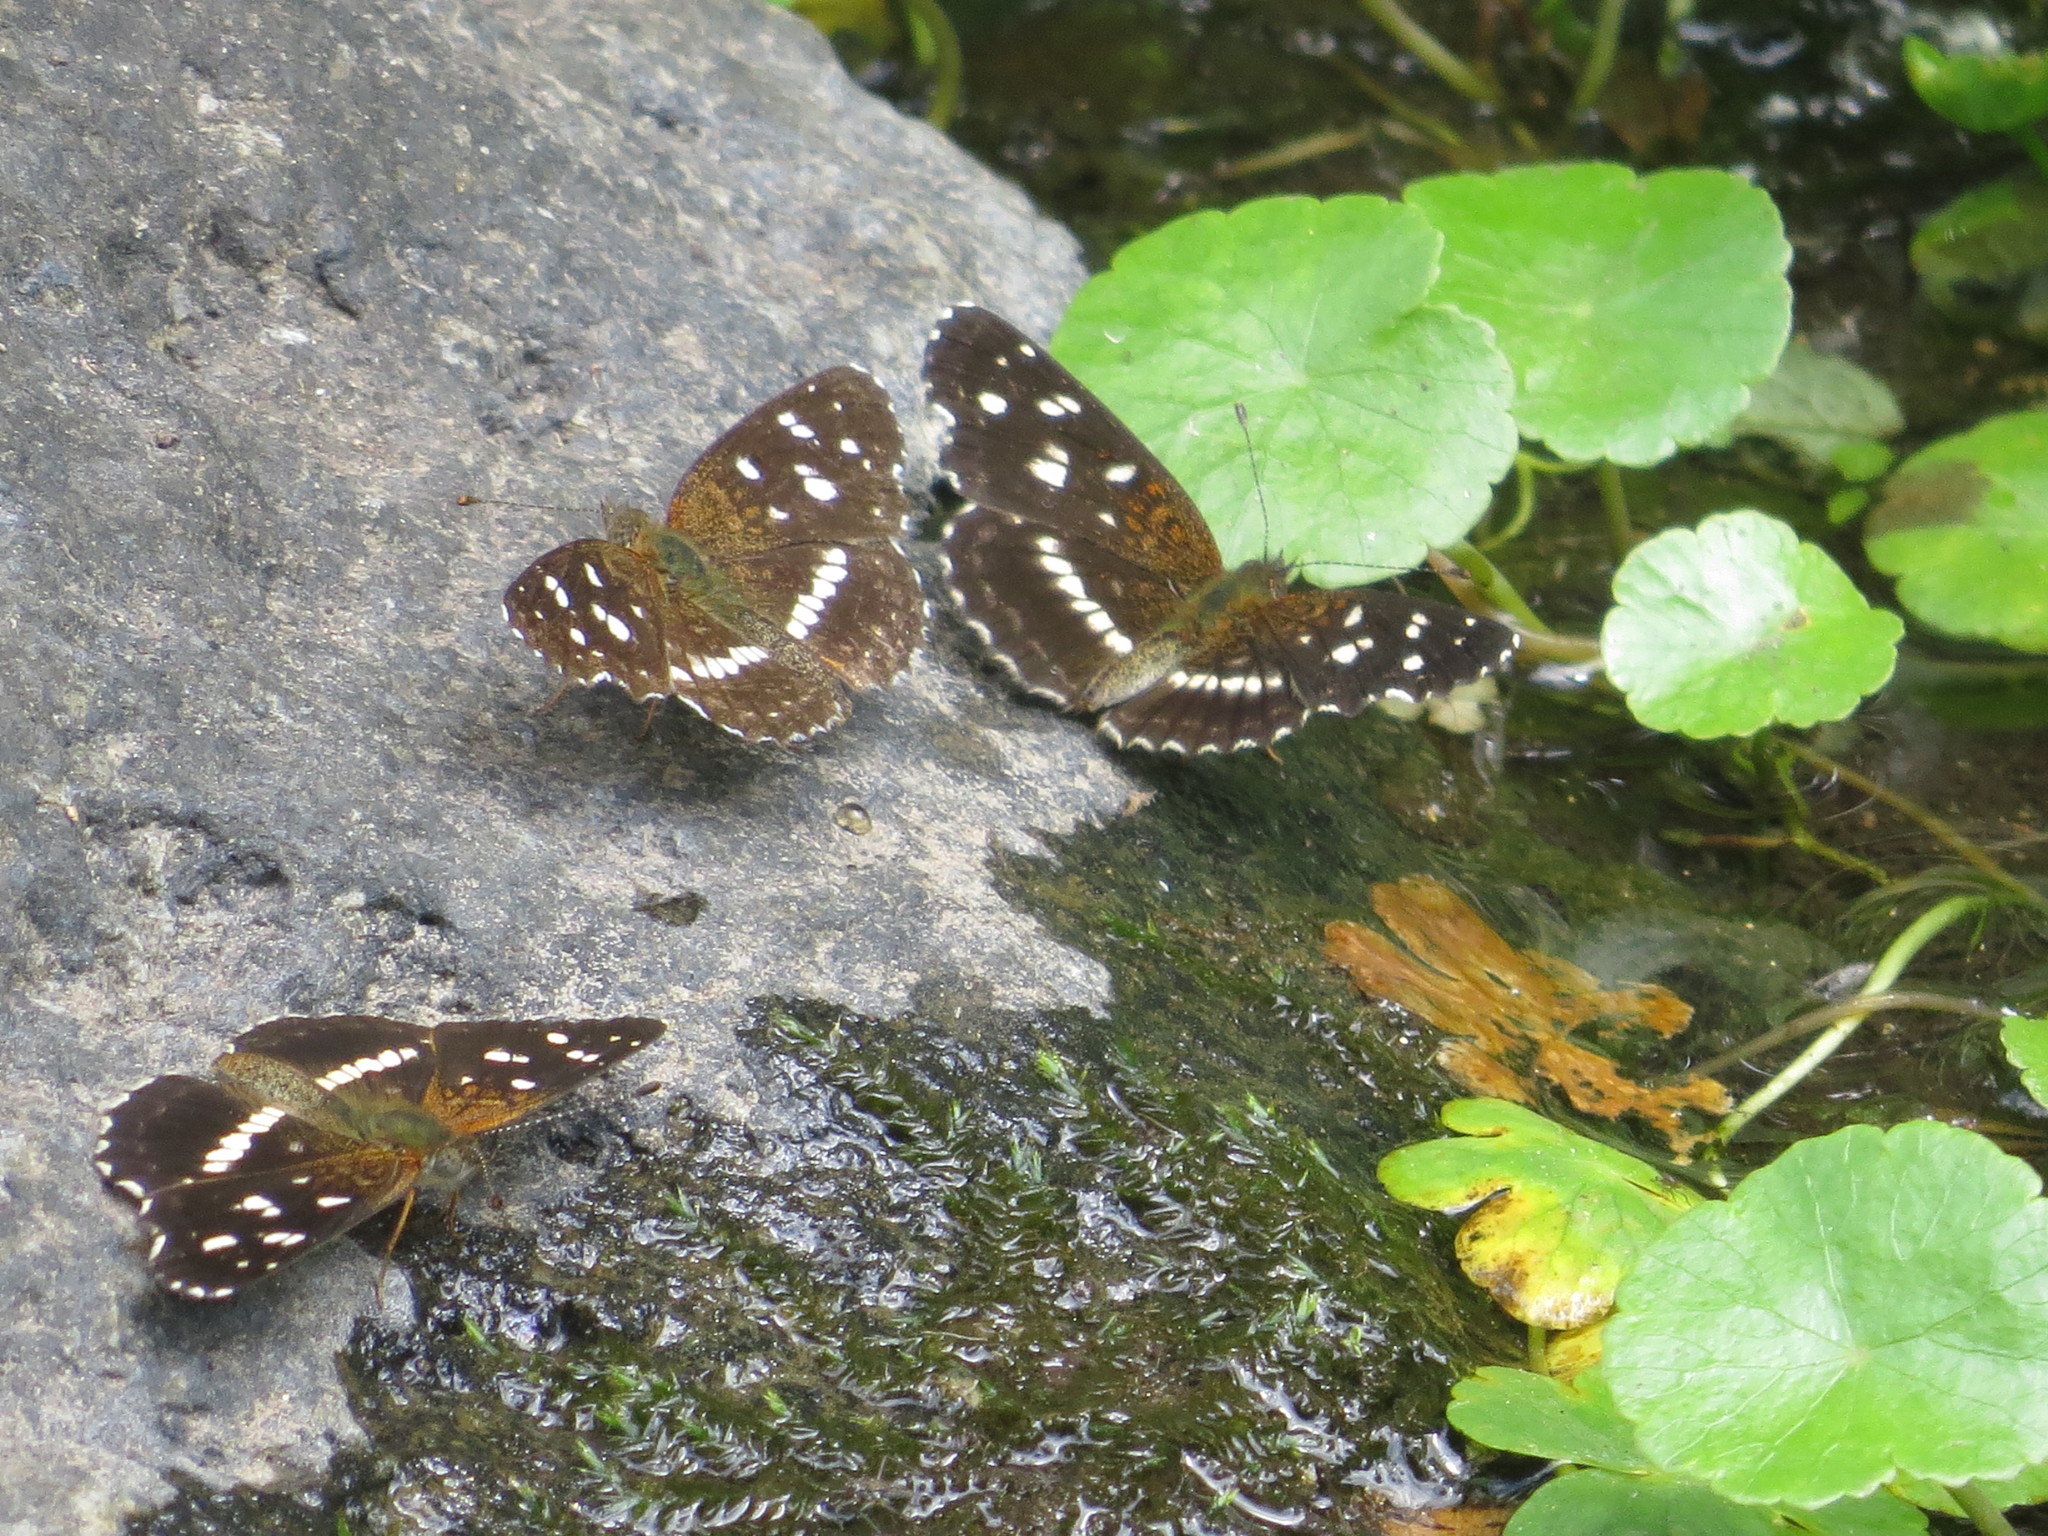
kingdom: Animalia
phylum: Arthropoda
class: Insecta
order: Lepidoptera
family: Nymphalidae
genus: Ortilia
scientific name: Ortilia ithra
